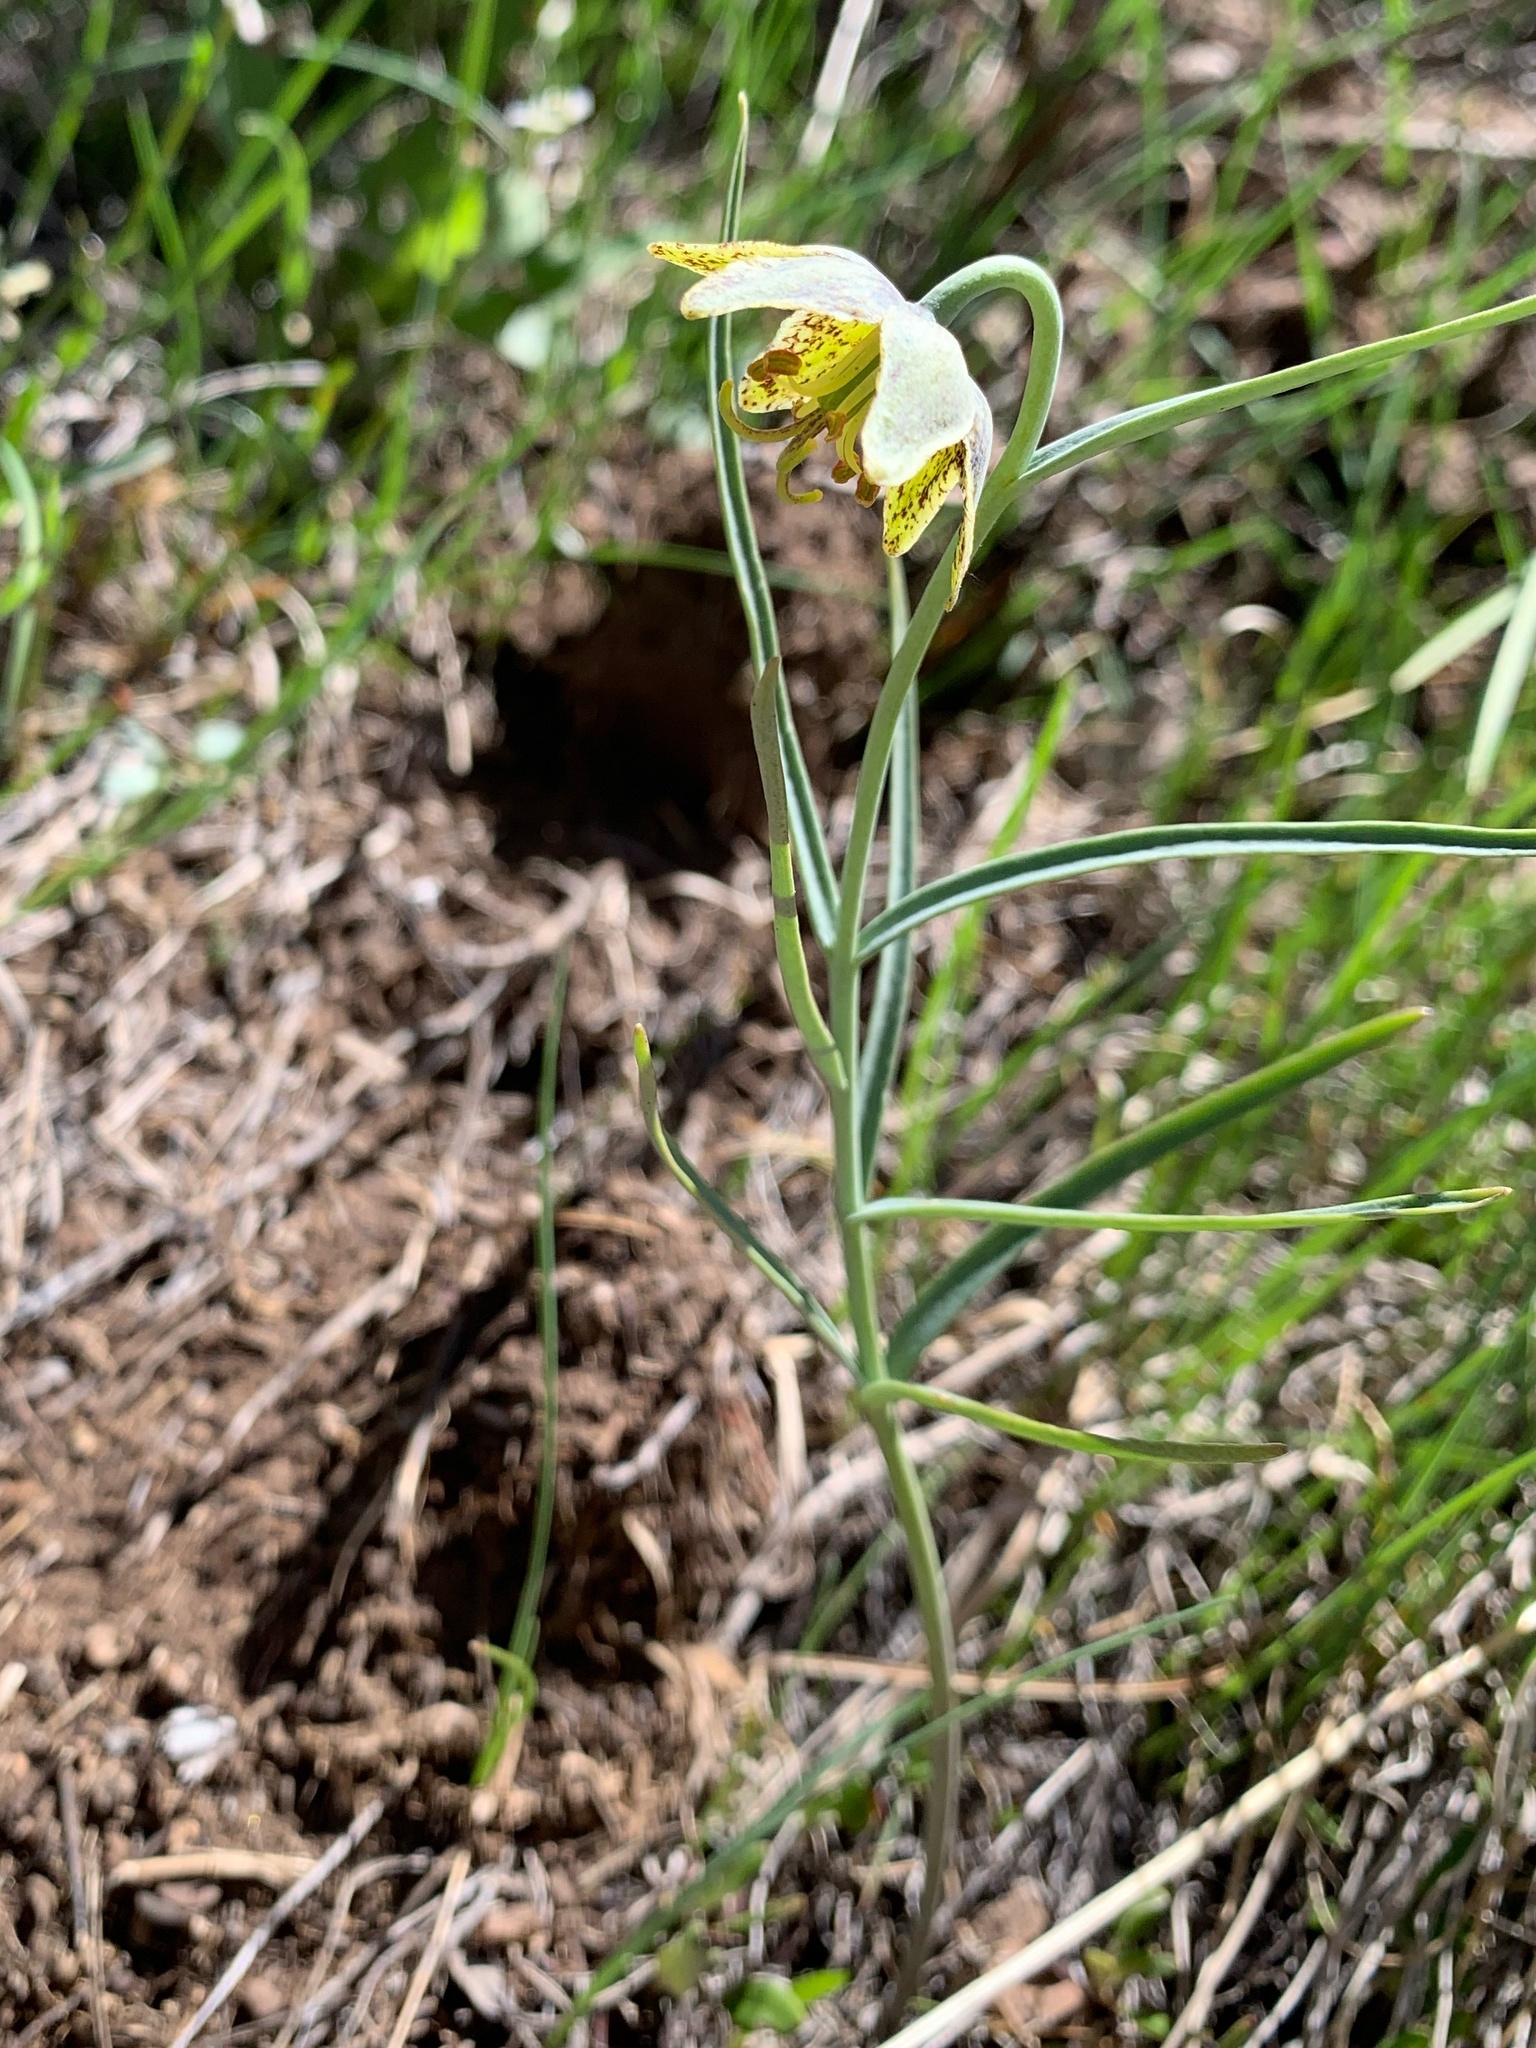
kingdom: Plantae
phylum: Tracheophyta
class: Liliopsida
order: Liliales
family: Liliaceae
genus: Fritillaria
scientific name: Fritillaria atropurpurea
